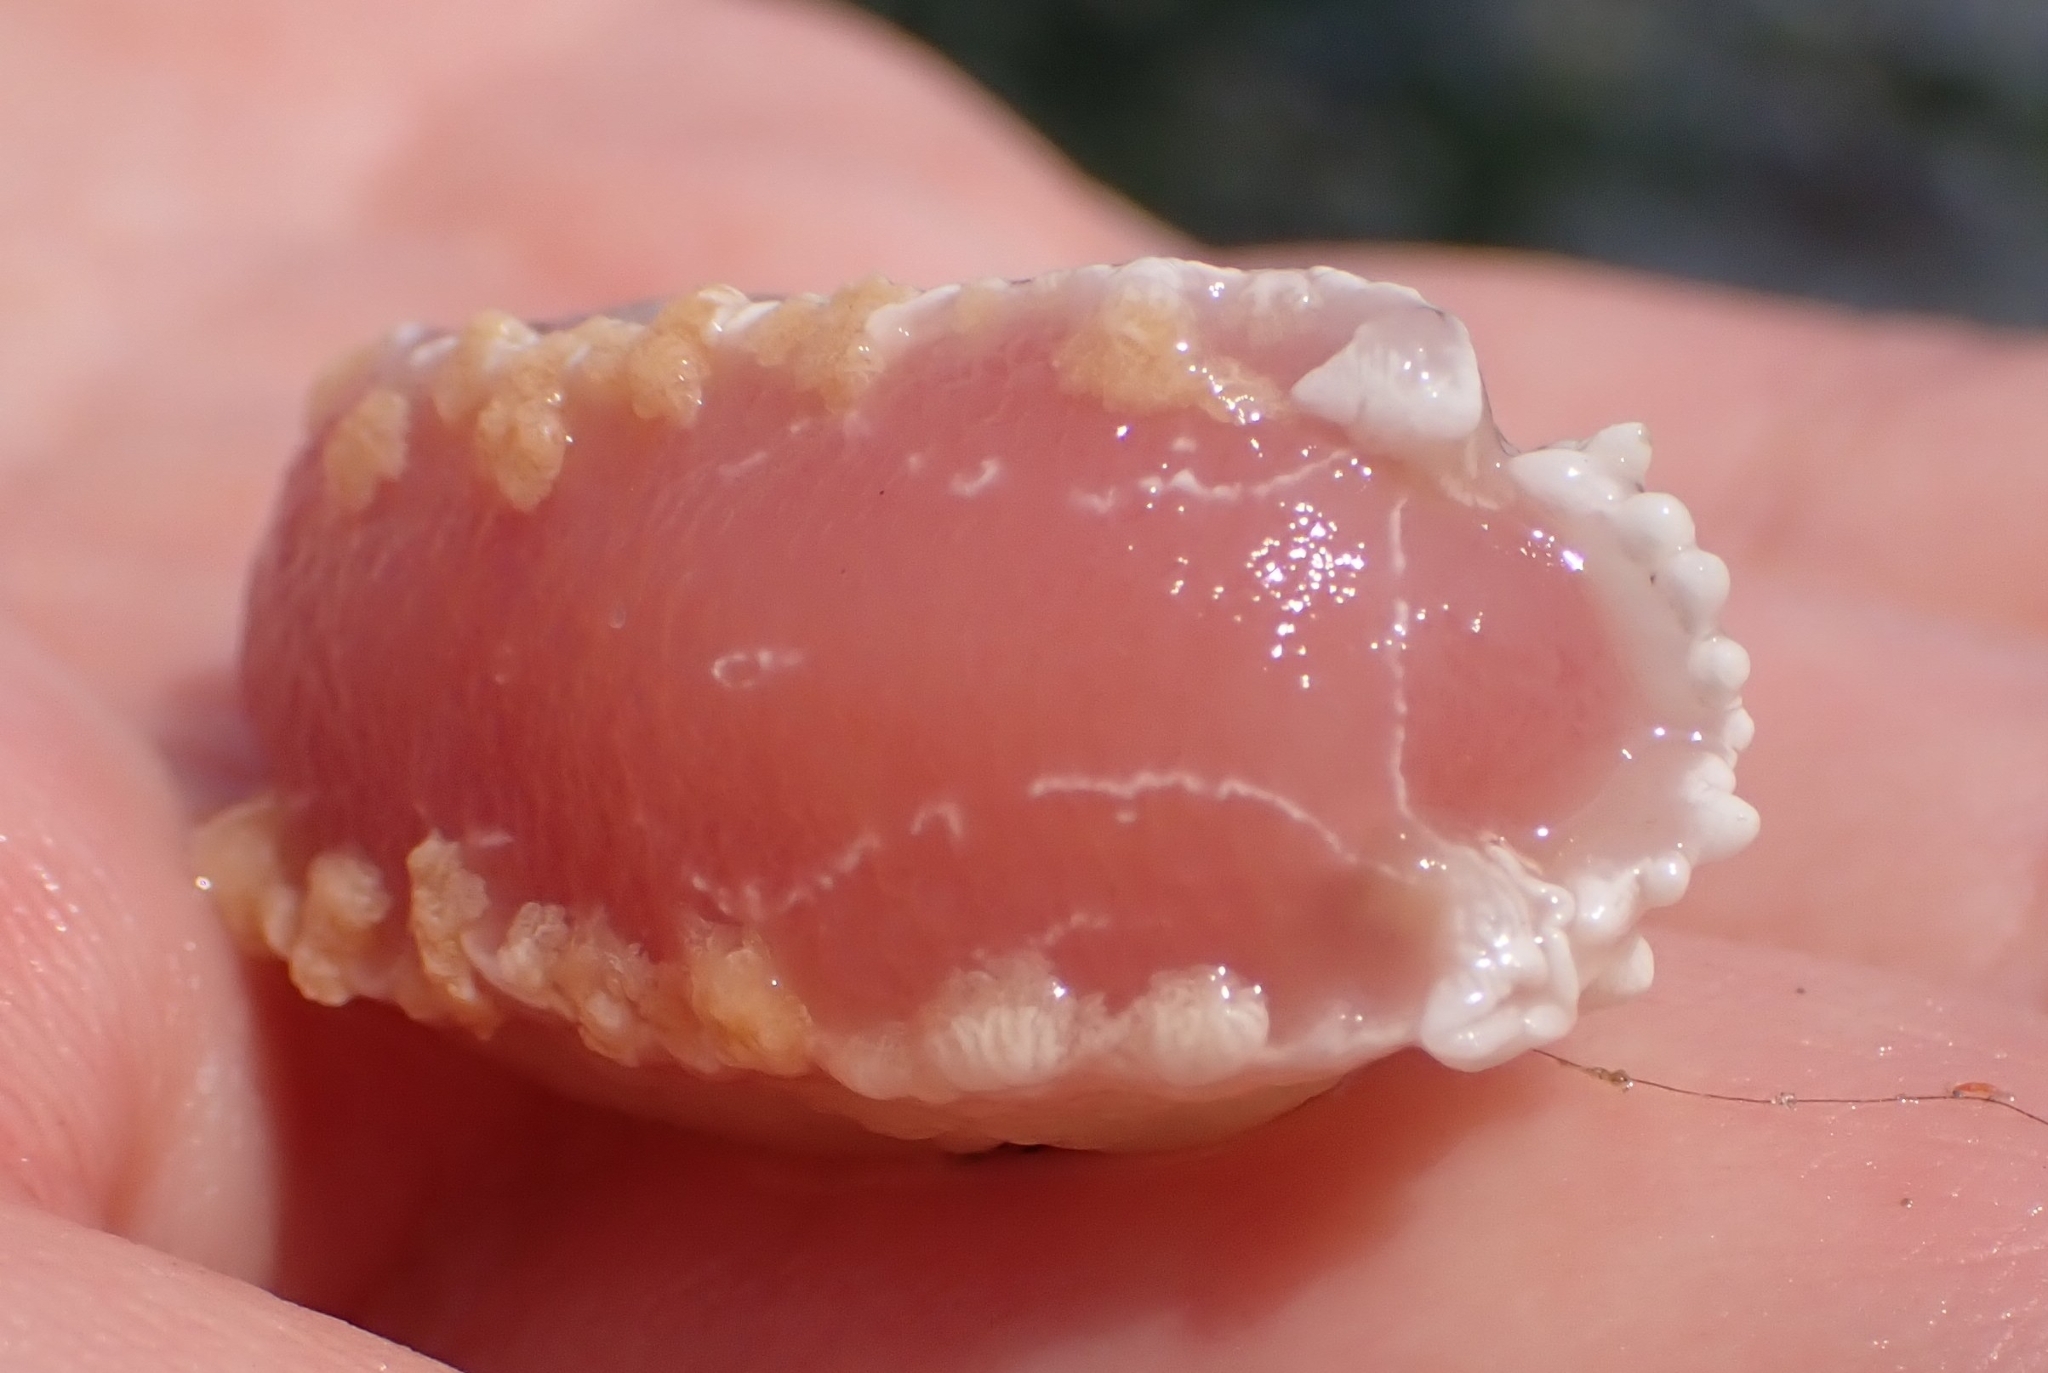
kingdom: Animalia
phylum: Mollusca
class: Gastropoda
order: Nudibranchia
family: Tritoniidae
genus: Tritonia
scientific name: Tritonia festiva
